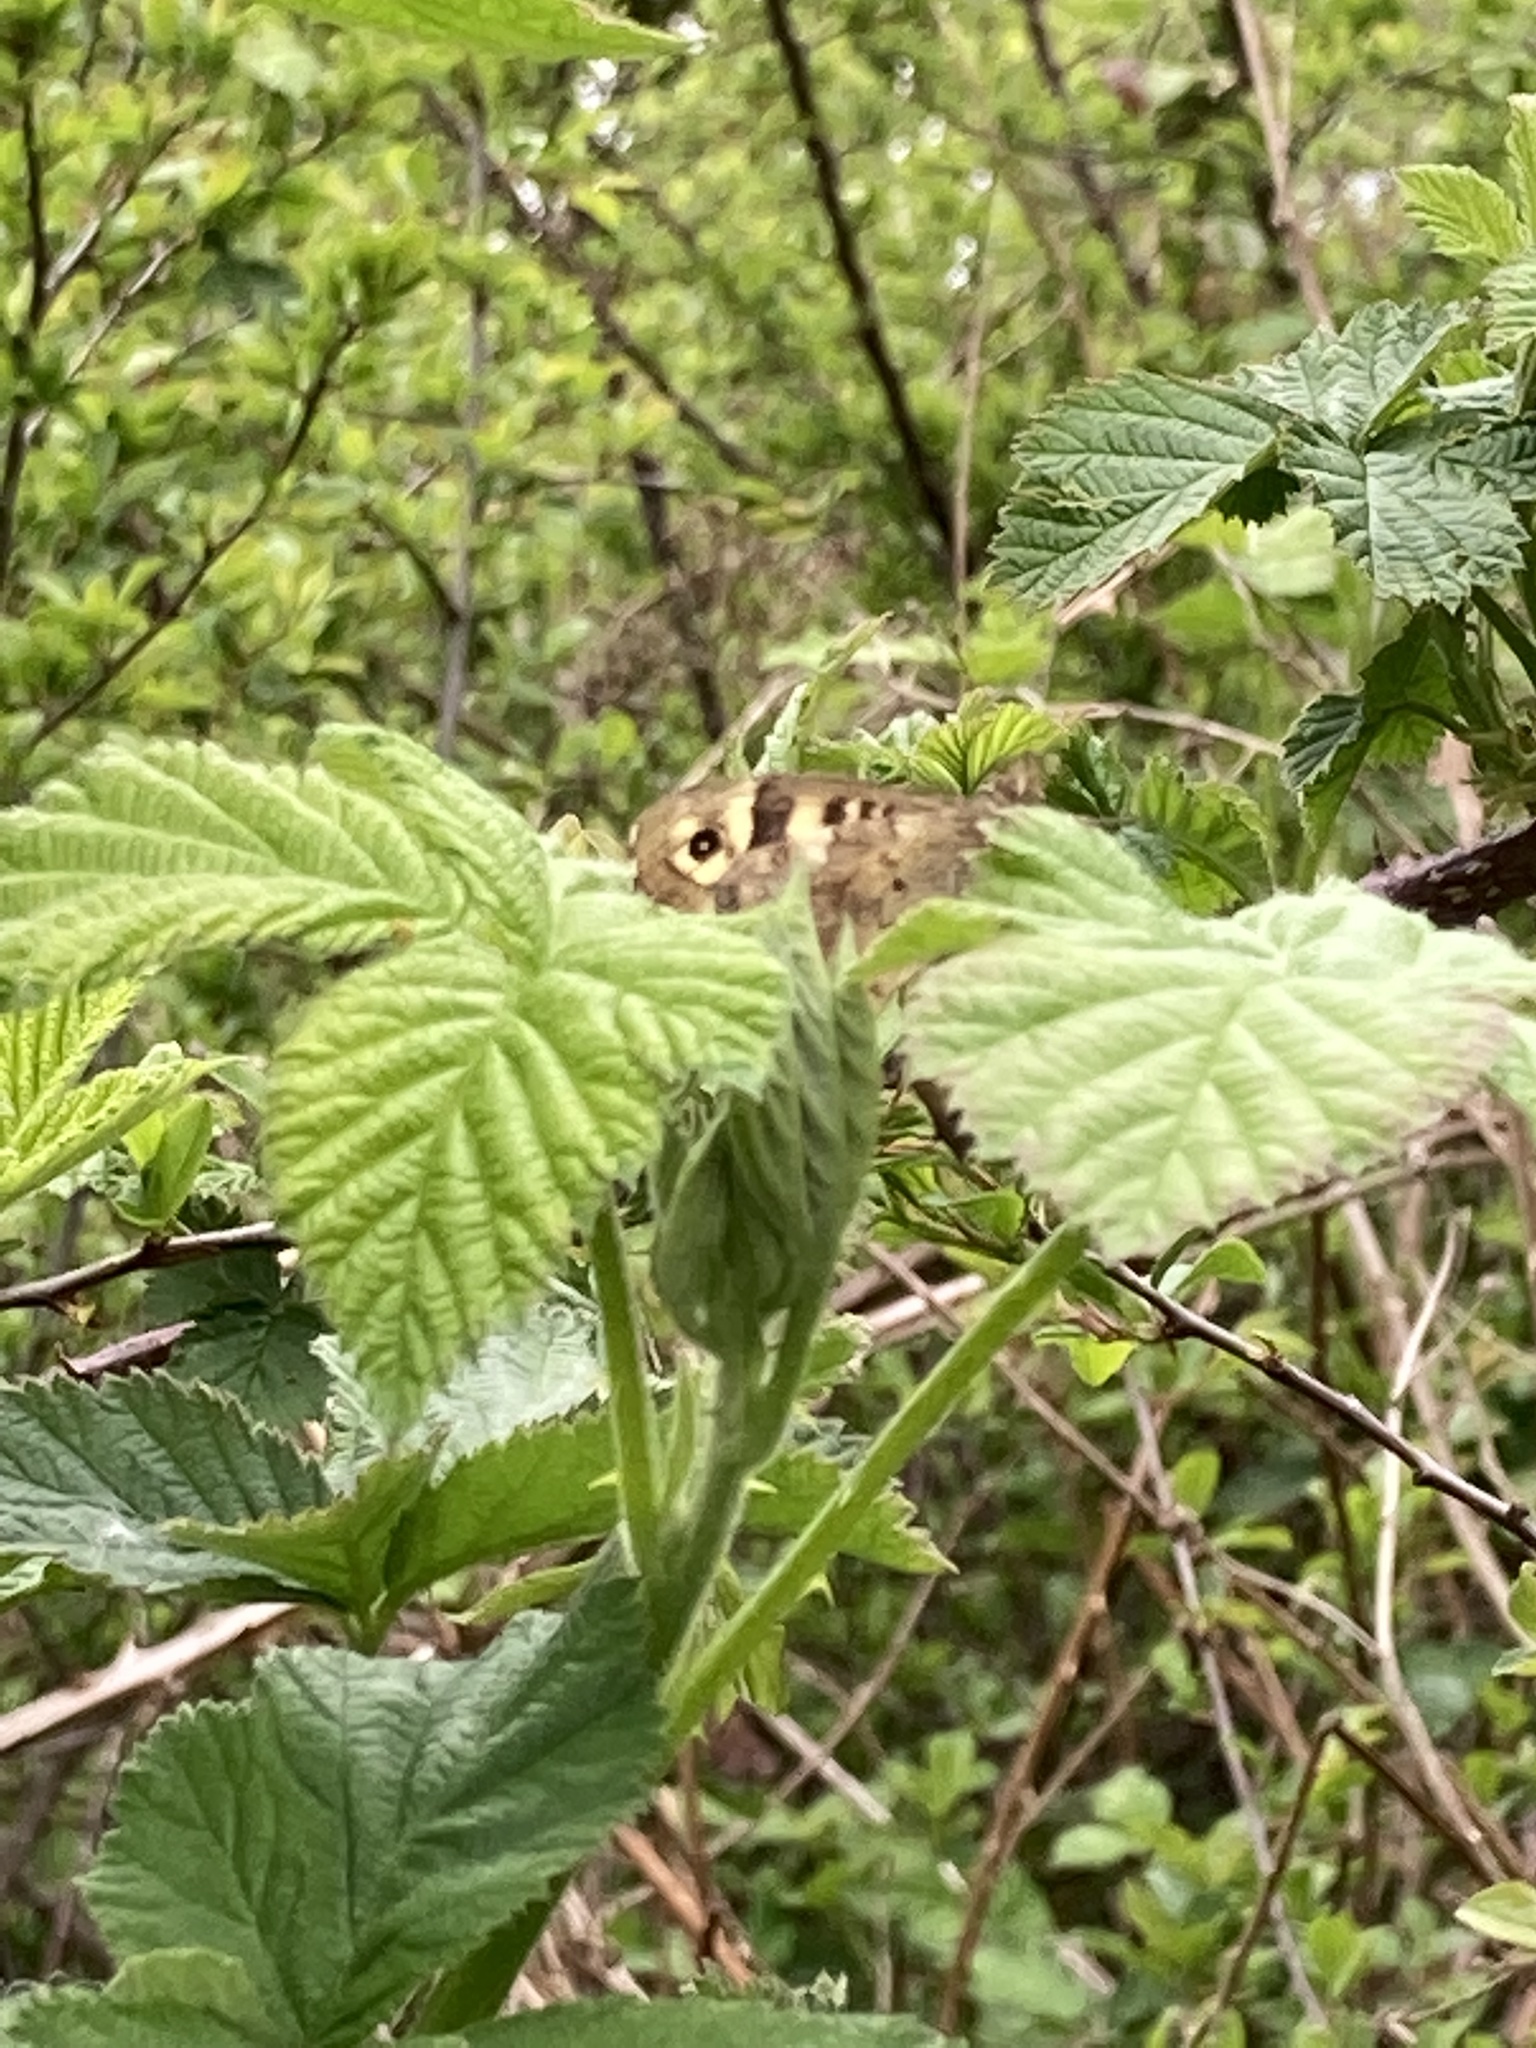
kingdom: Animalia
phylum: Arthropoda
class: Insecta
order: Lepidoptera
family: Nymphalidae
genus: Pararge
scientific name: Pararge aegeria
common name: Speckled wood
